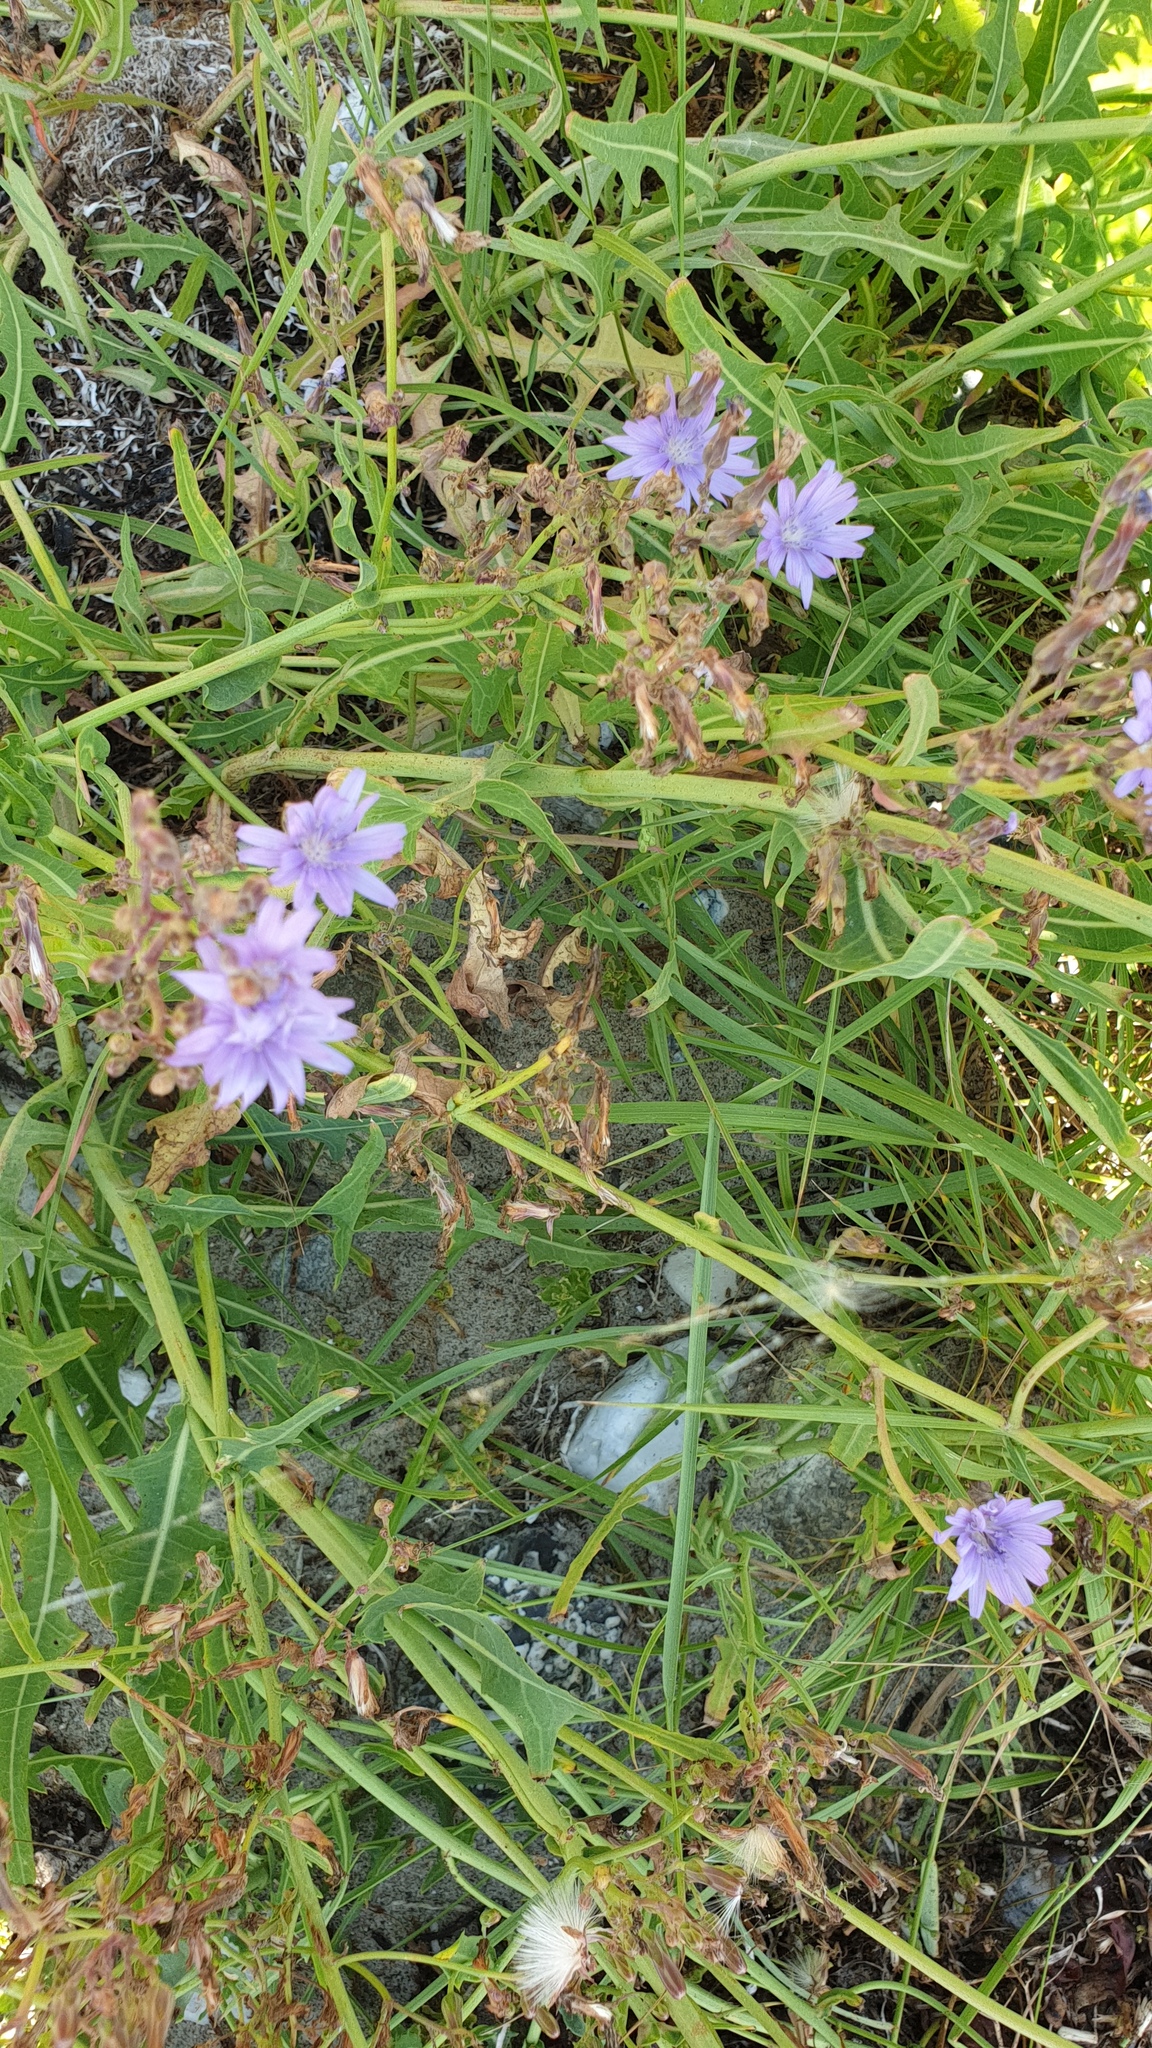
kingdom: Plantae
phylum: Tracheophyta
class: Magnoliopsida
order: Asterales
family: Asteraceae
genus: Cichorium
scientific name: Cichorium intybus
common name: Chicory
